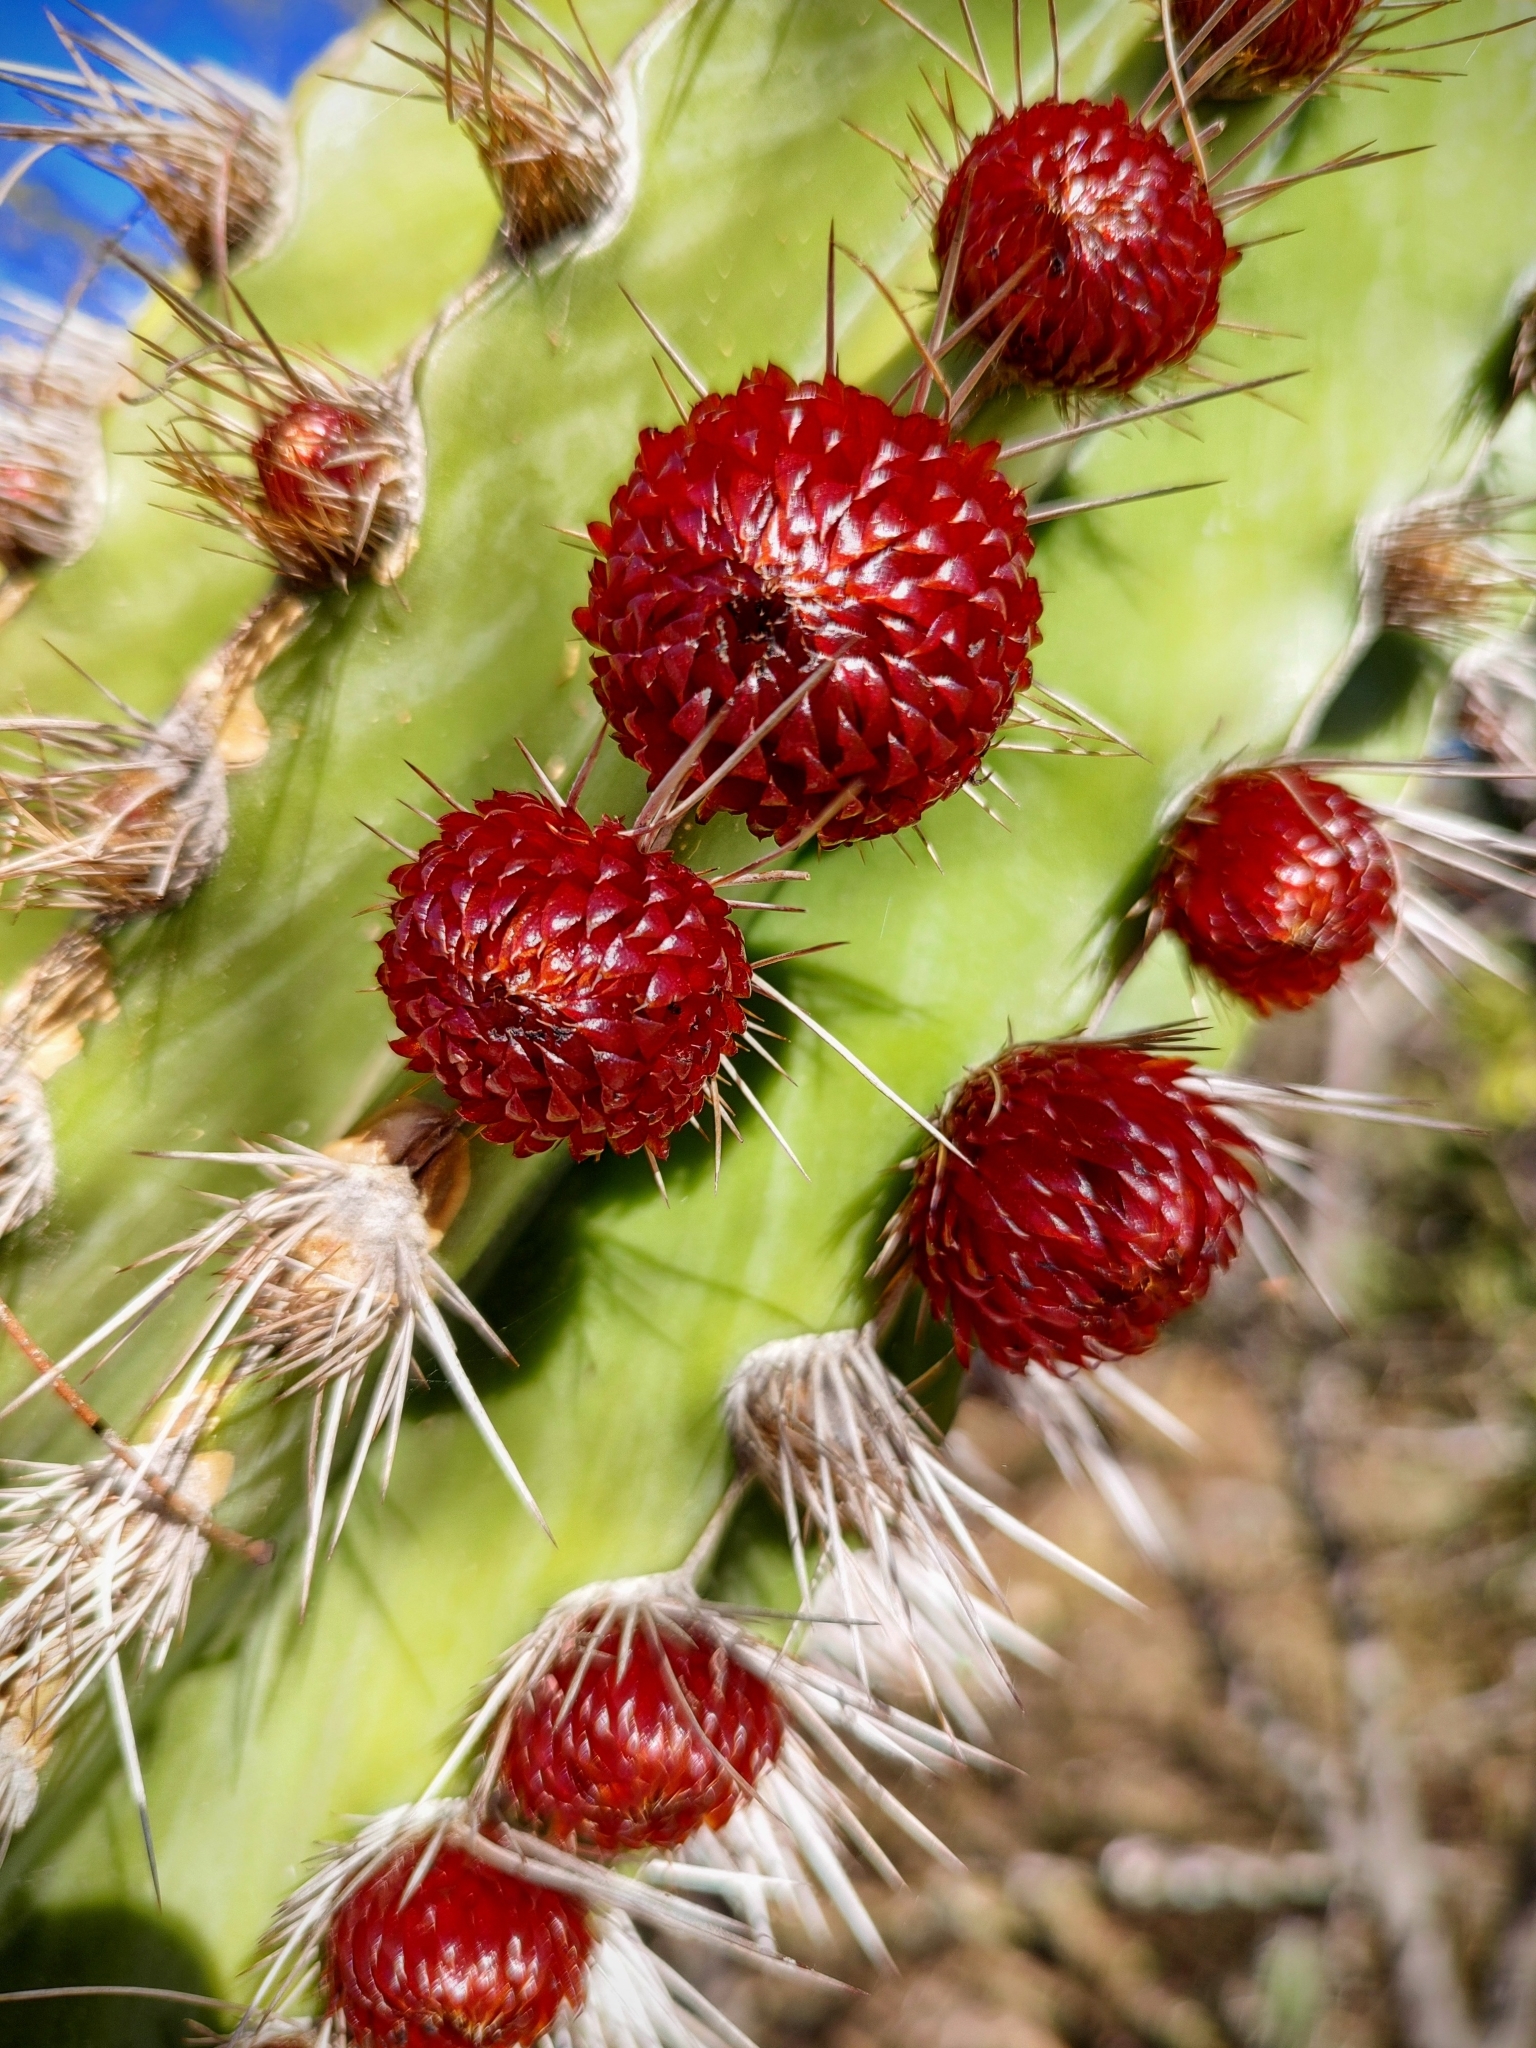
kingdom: Plantae
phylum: Tracheophyta
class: Magnoliopsida
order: Caryophyllales
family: Cactaceae
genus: Pachycereus
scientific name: Pachycereus pecten-aboriginum
